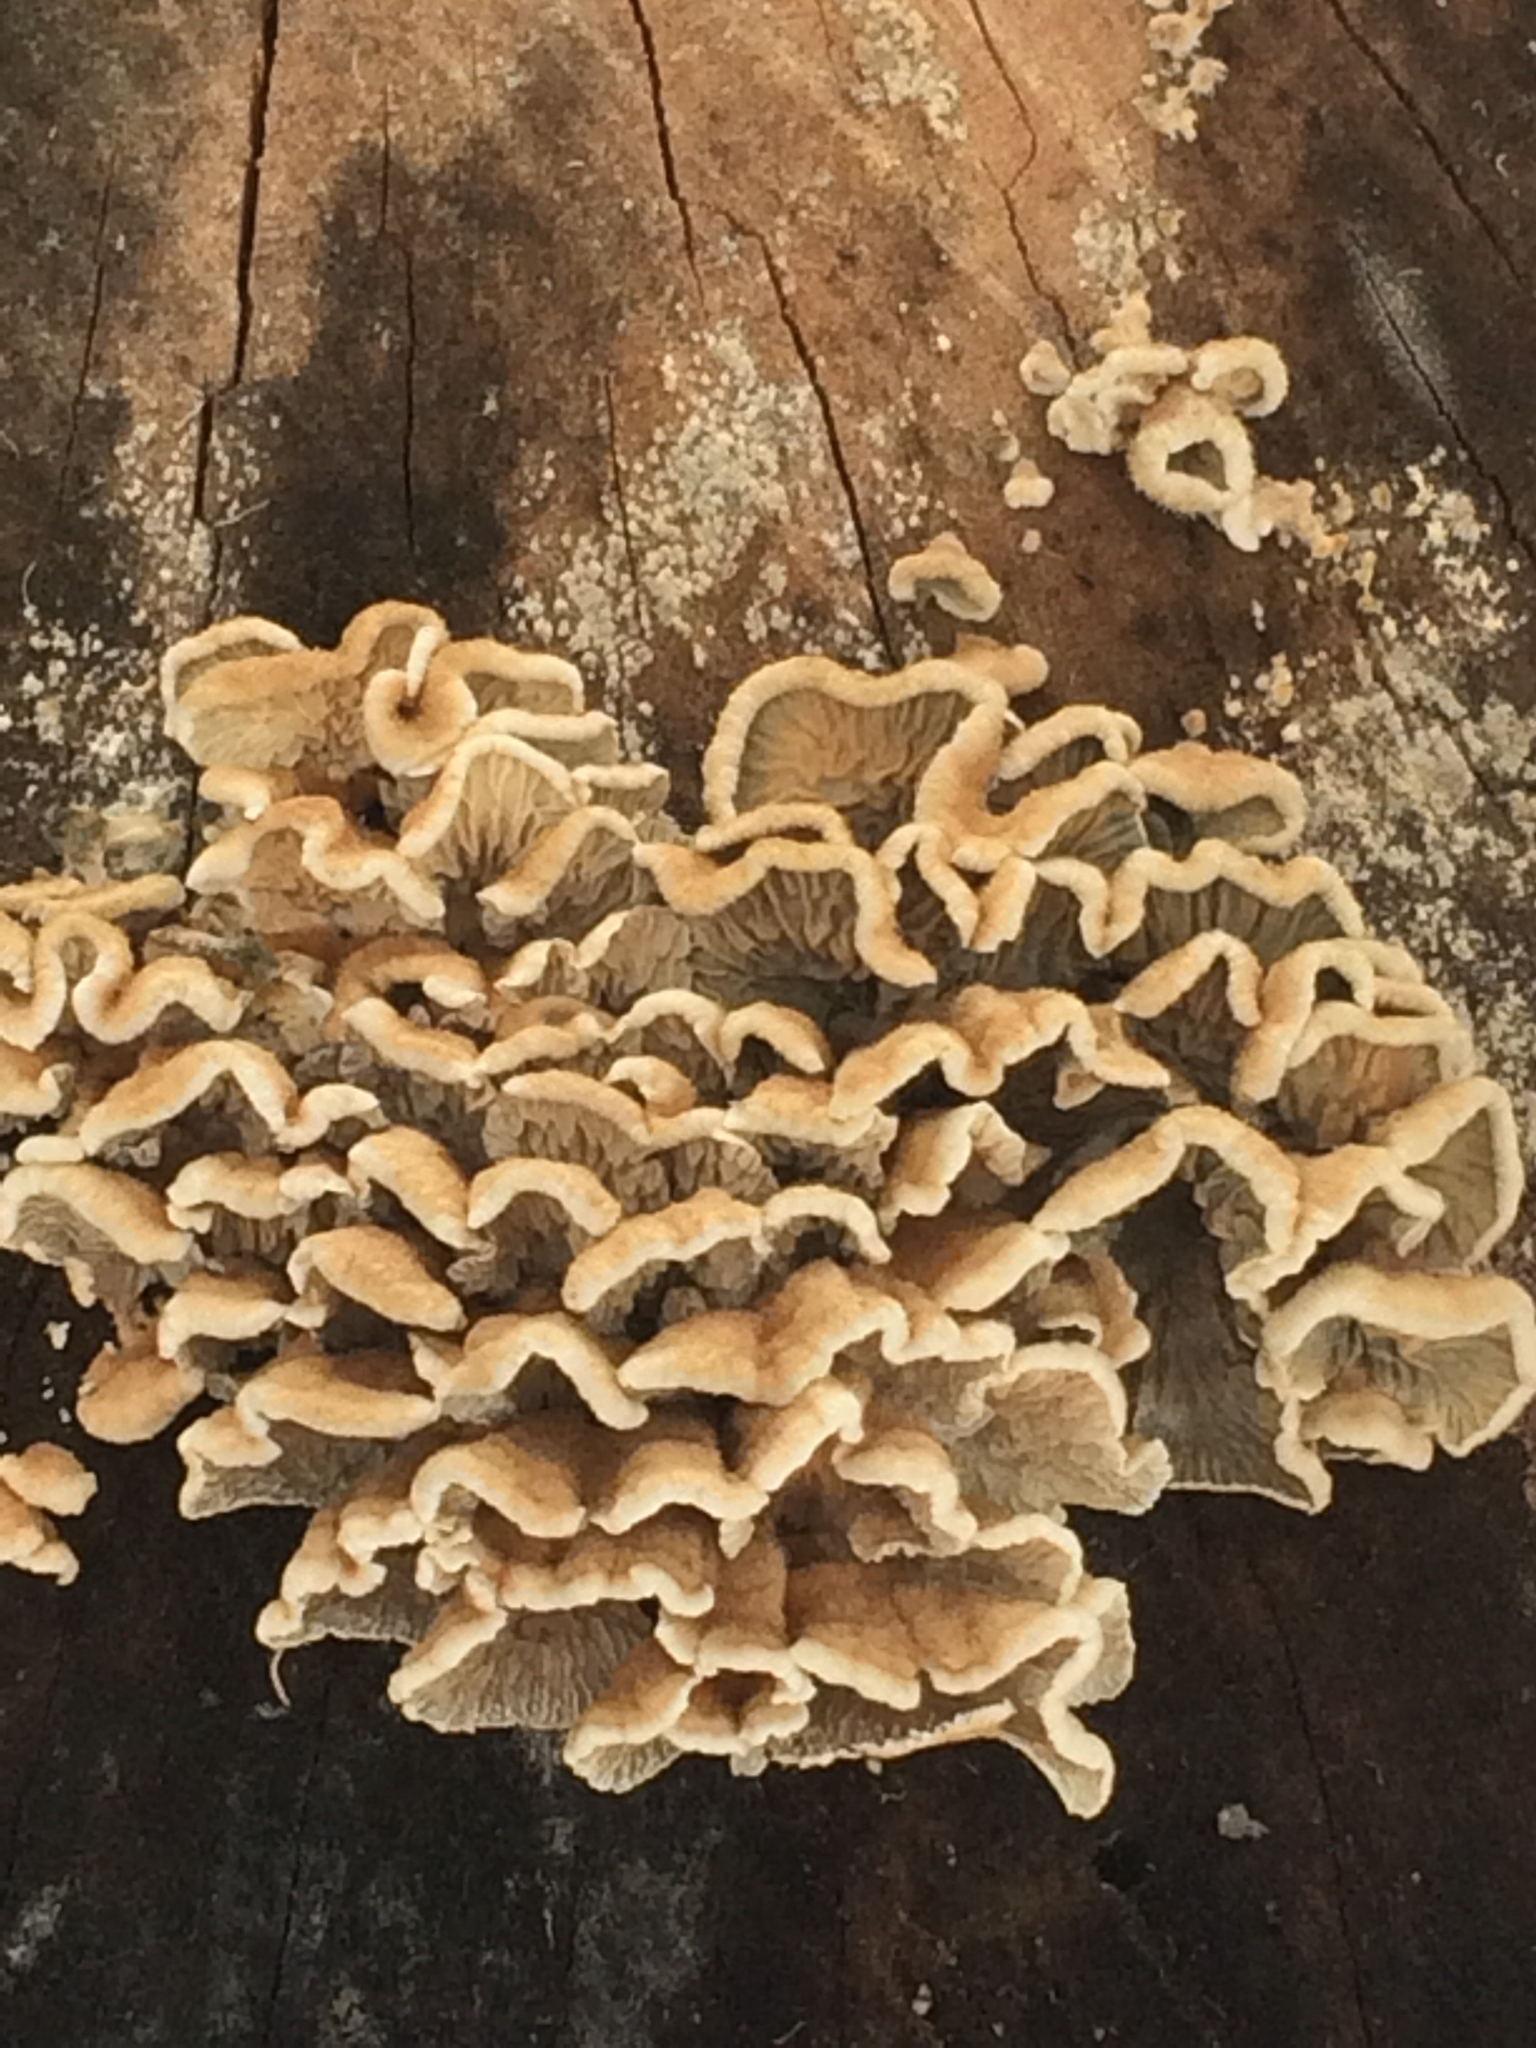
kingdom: Fungi
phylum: Basidiomycota
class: Agaricomycetes
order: Amylocorticiales
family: Amylocorticiaceae
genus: Plicaturopsis
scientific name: Plicaturopsis crispa
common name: Crimped gill
